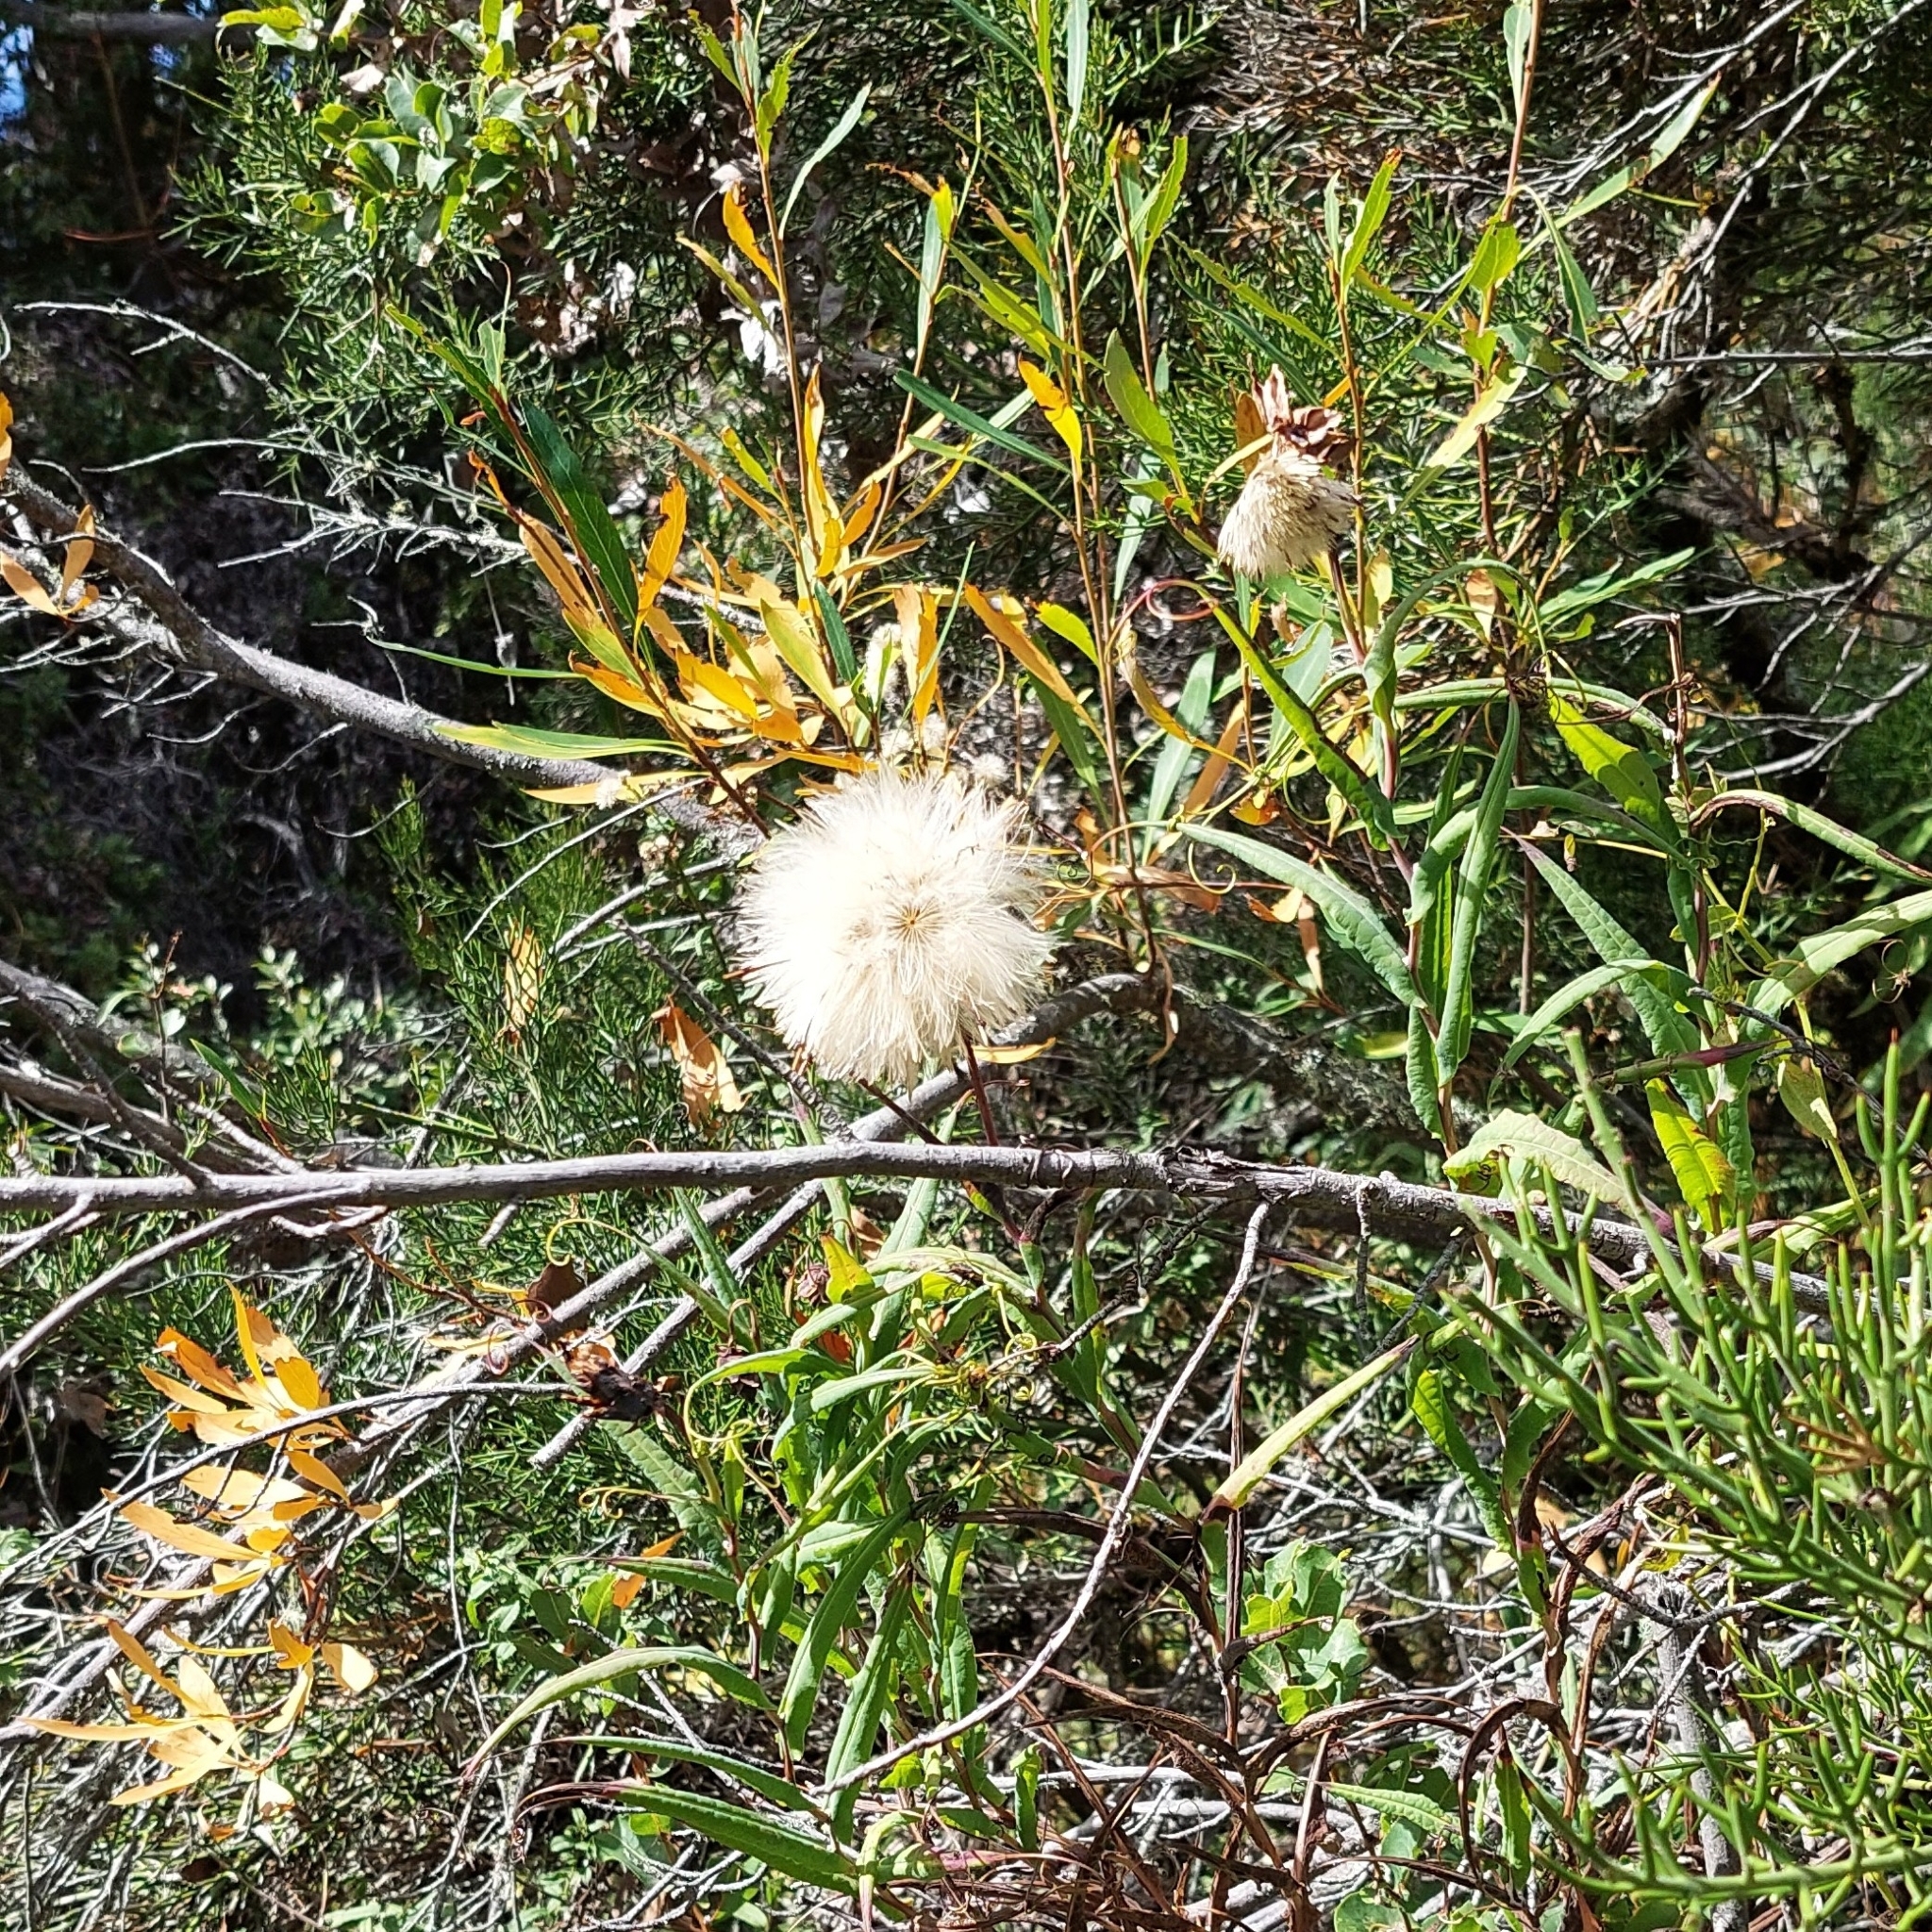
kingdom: Plantae
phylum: Tracheophyta
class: Magnoliopsida
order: Asterales
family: Asteraceae
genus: Mutisia
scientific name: Mutisia decurrens
